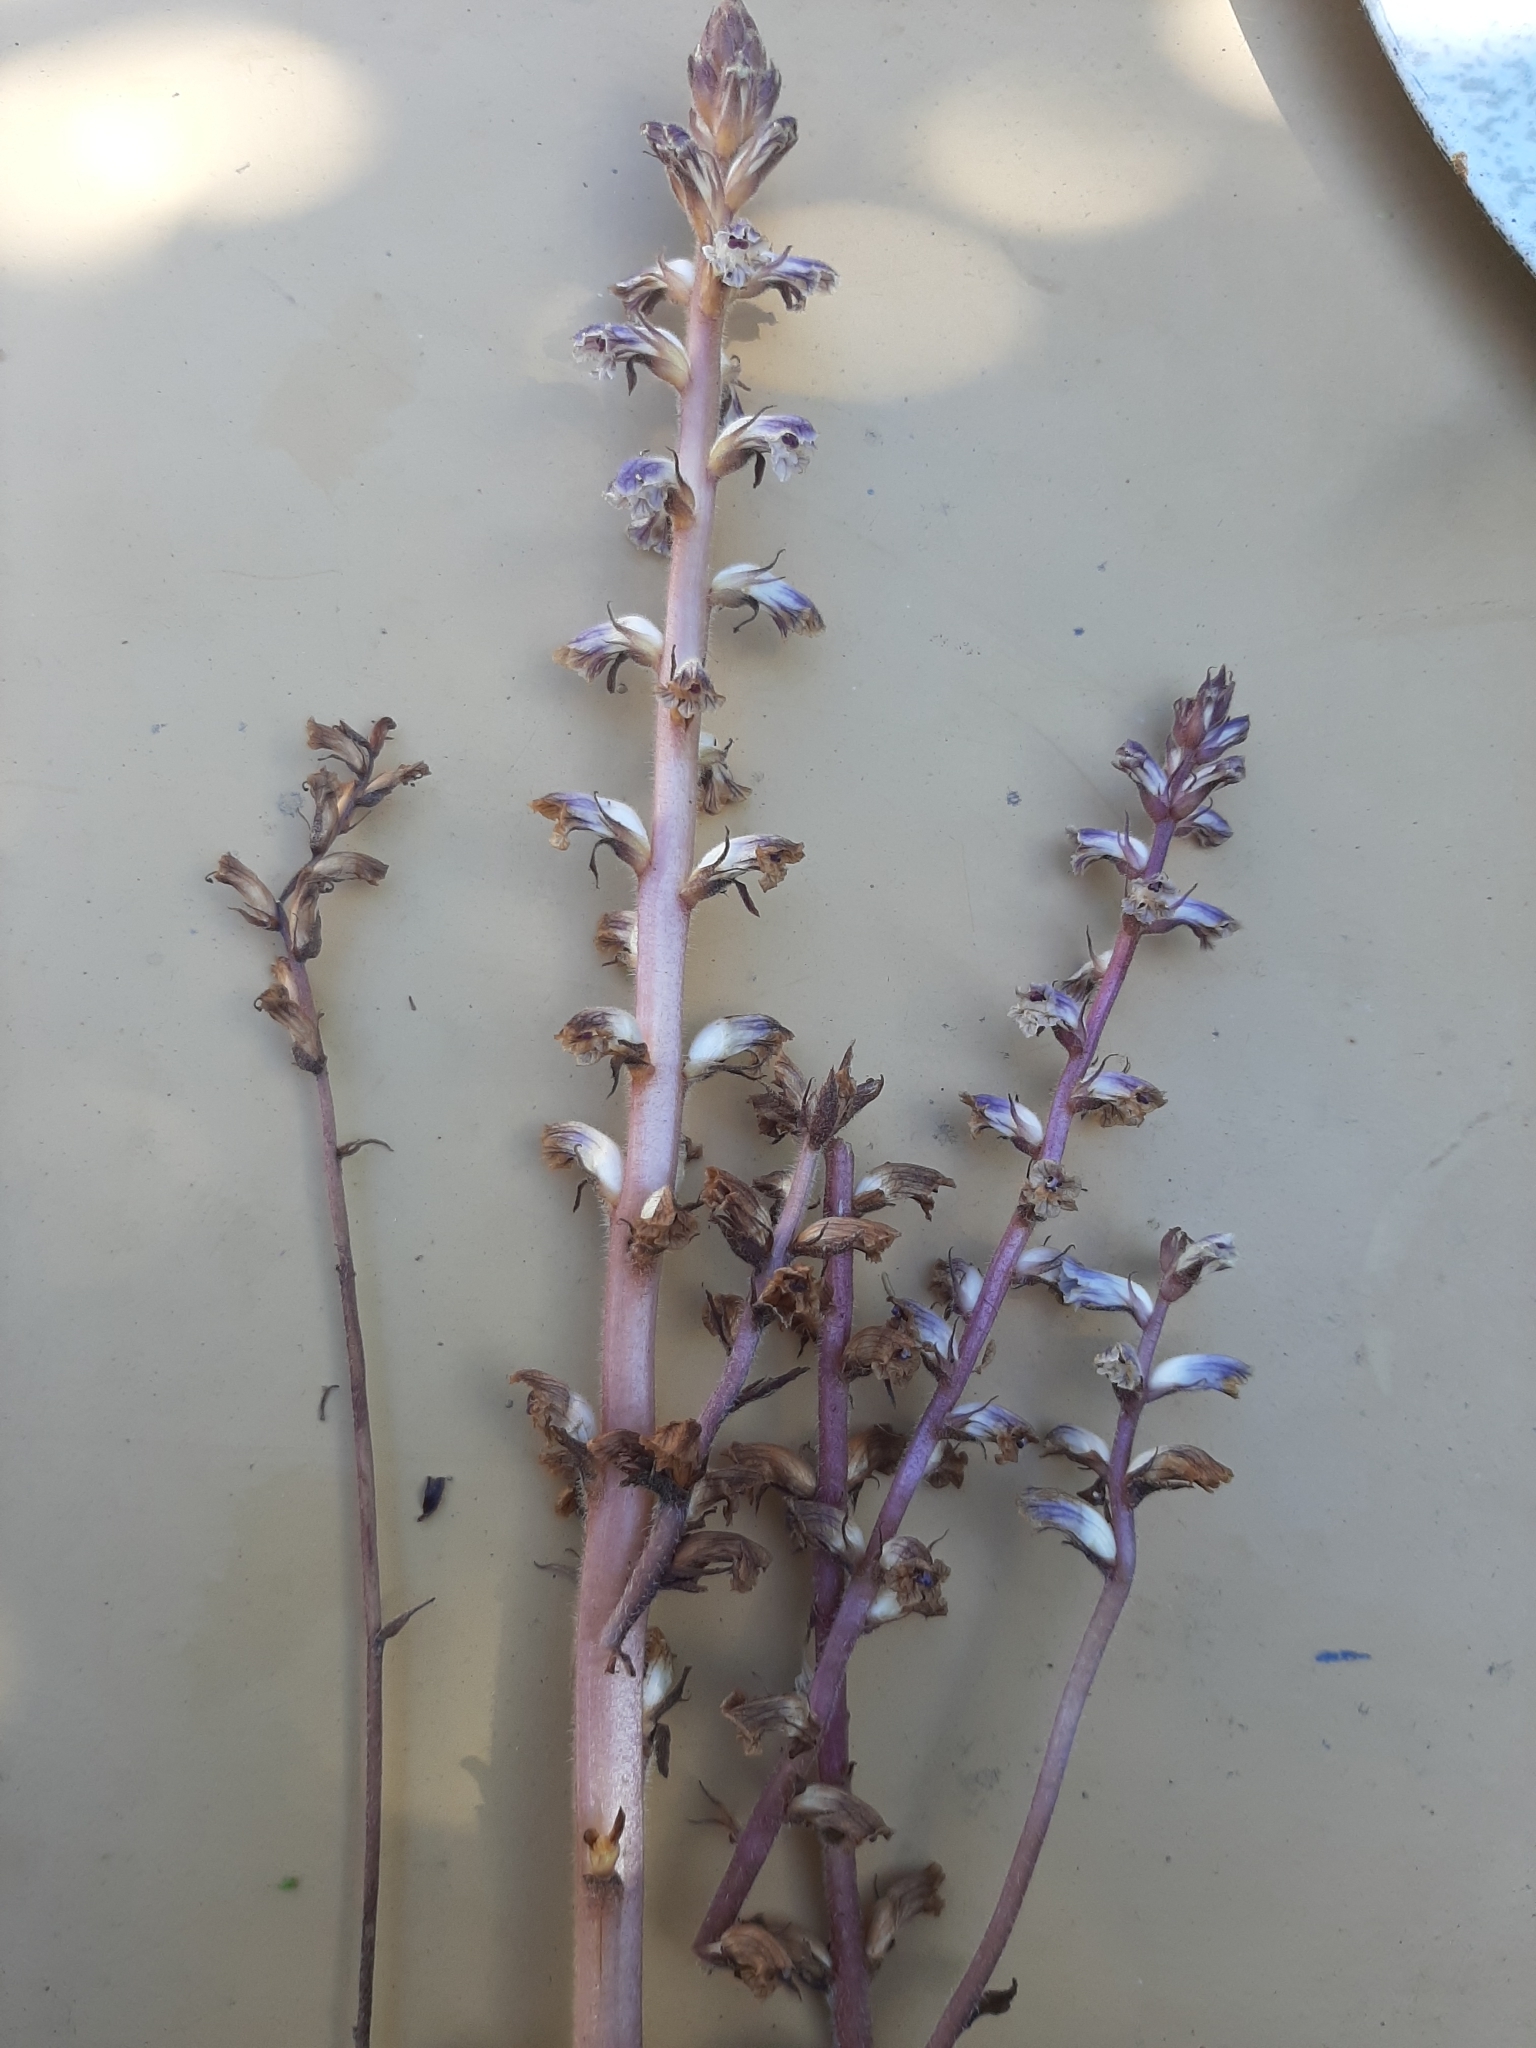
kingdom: Plantae
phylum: Tracheophyta
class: Magnoliopsida
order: Lamiales
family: Orobanchaceae
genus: Orobanche
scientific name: Orobanche minor
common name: Common broomrape
